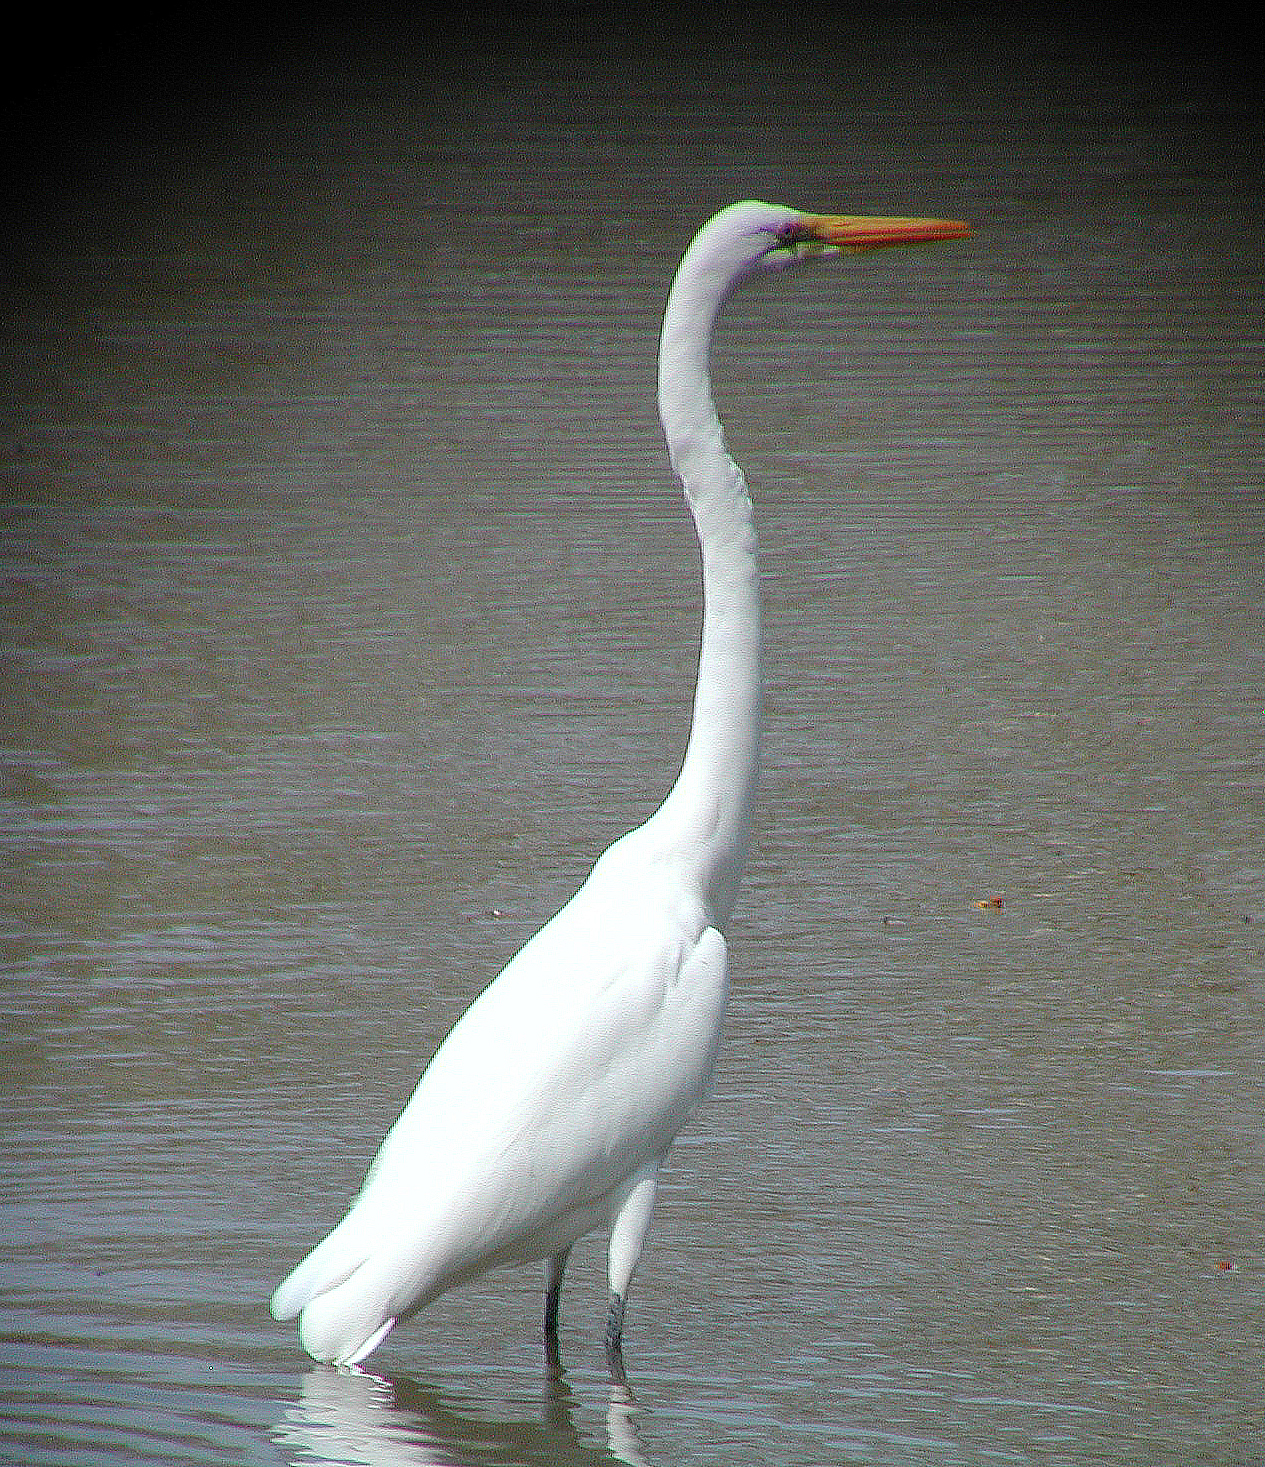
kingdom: Animalia
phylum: Chordata
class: Aves
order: Pelecaniformes
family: Ardeidae
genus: Ardea
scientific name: Ardea alba
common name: Great egret
